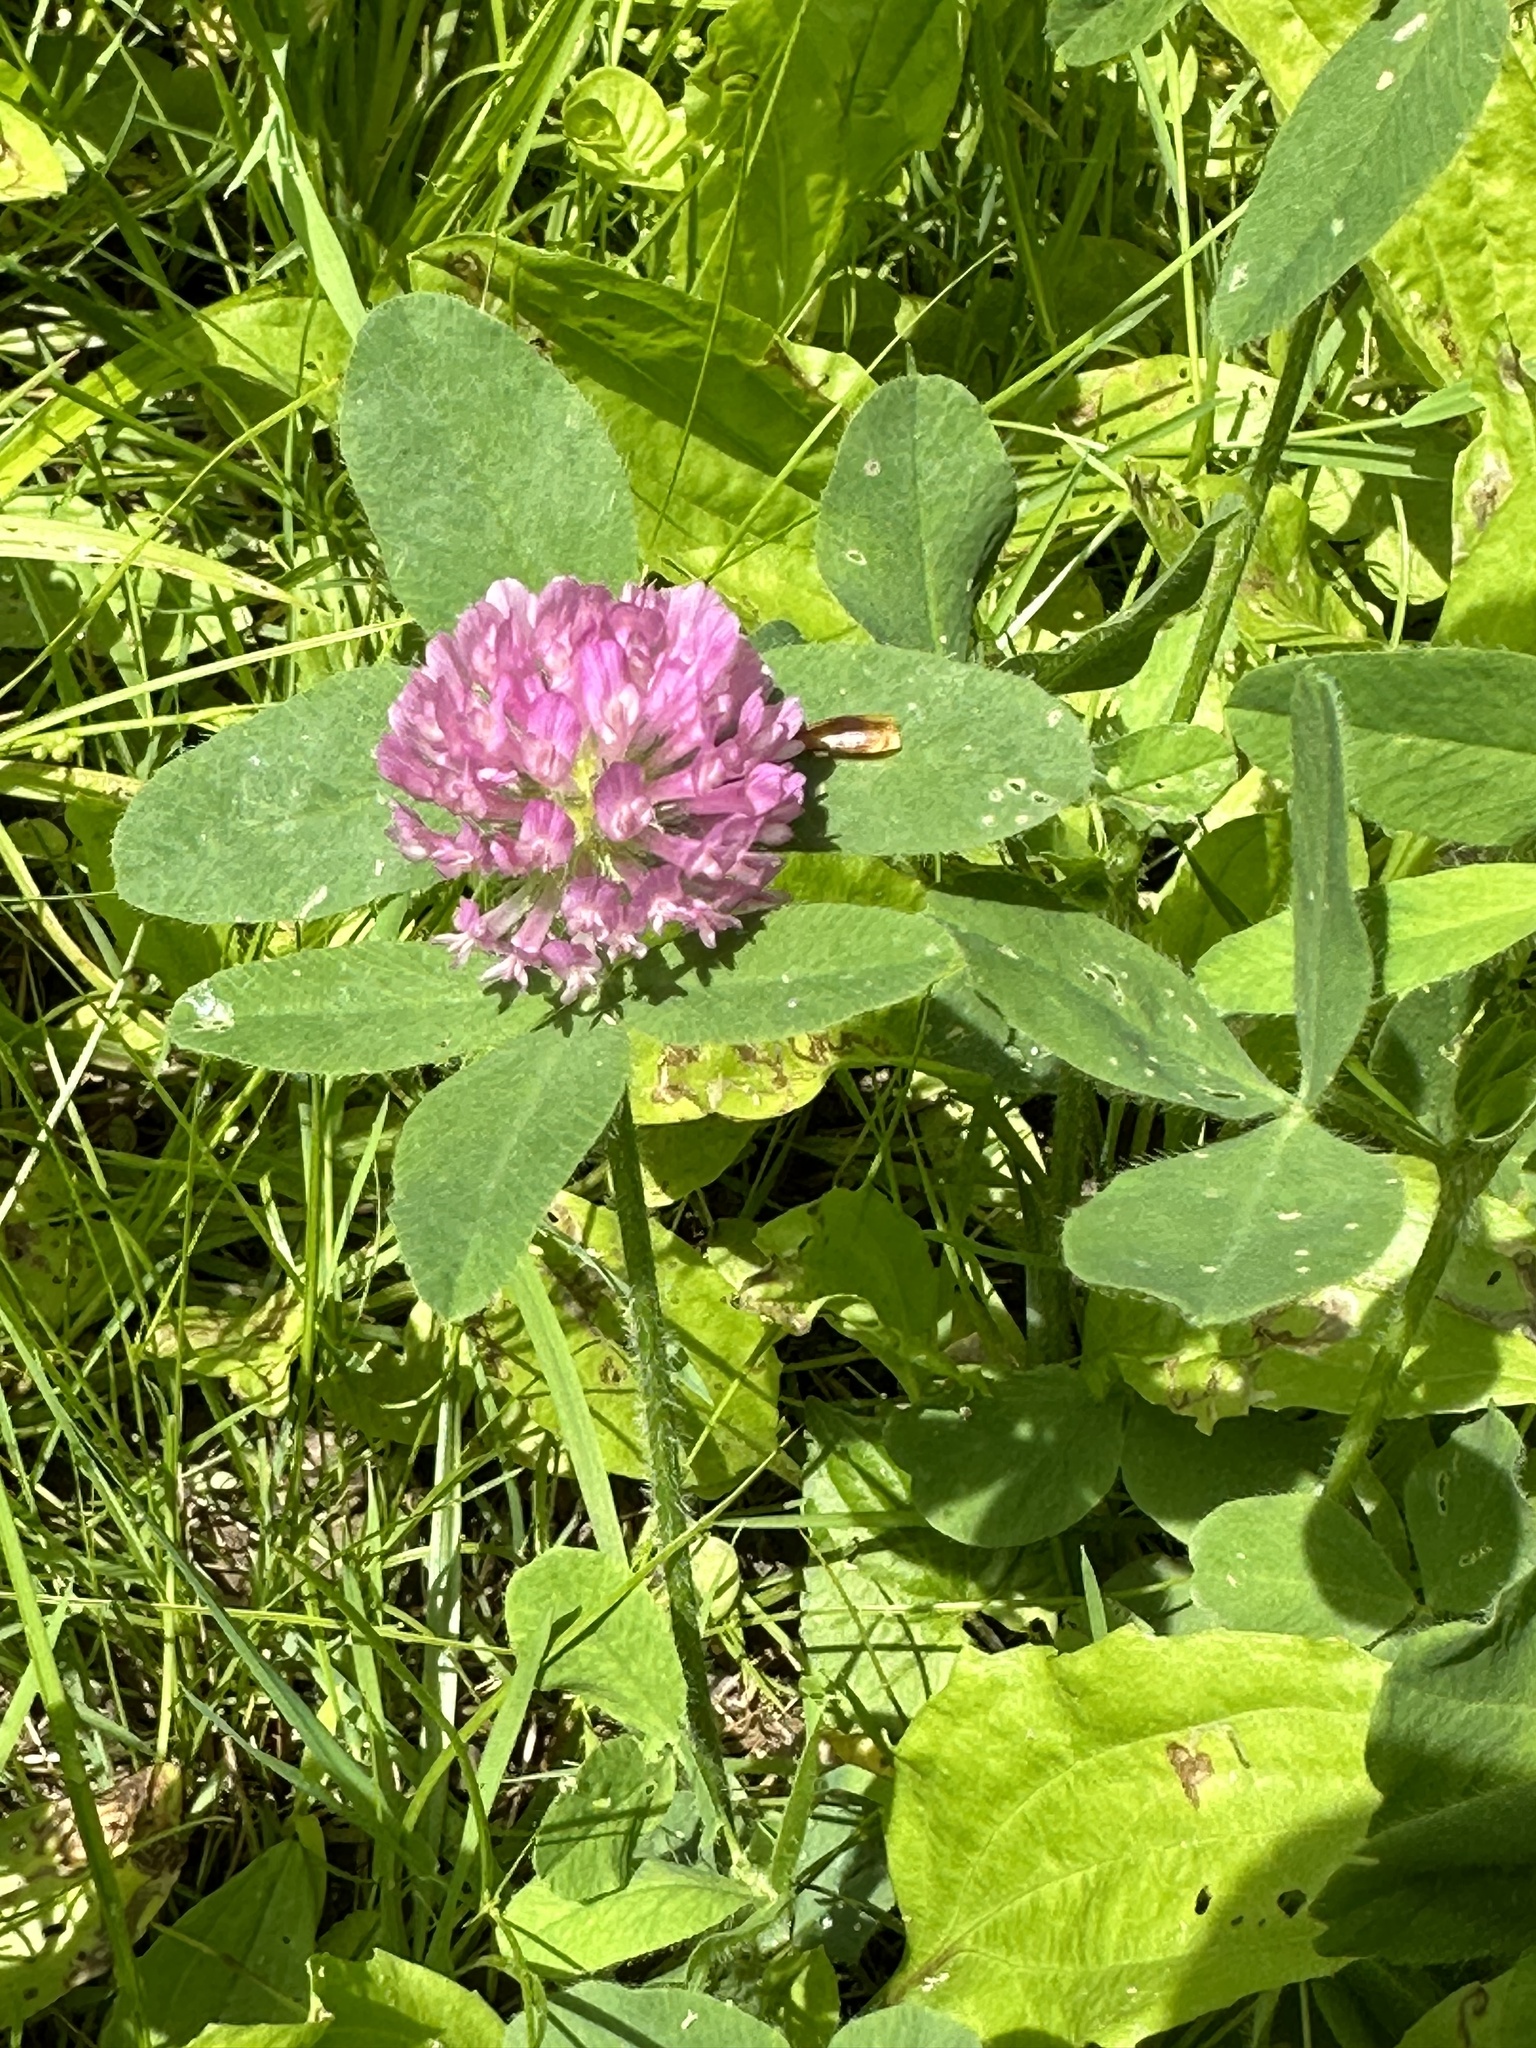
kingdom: Plantae
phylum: Tracheophyta
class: Magnoliopsida
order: Fabales
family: Fabaceae
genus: Trifolium
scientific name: Trifolium pratense
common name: Red clover
